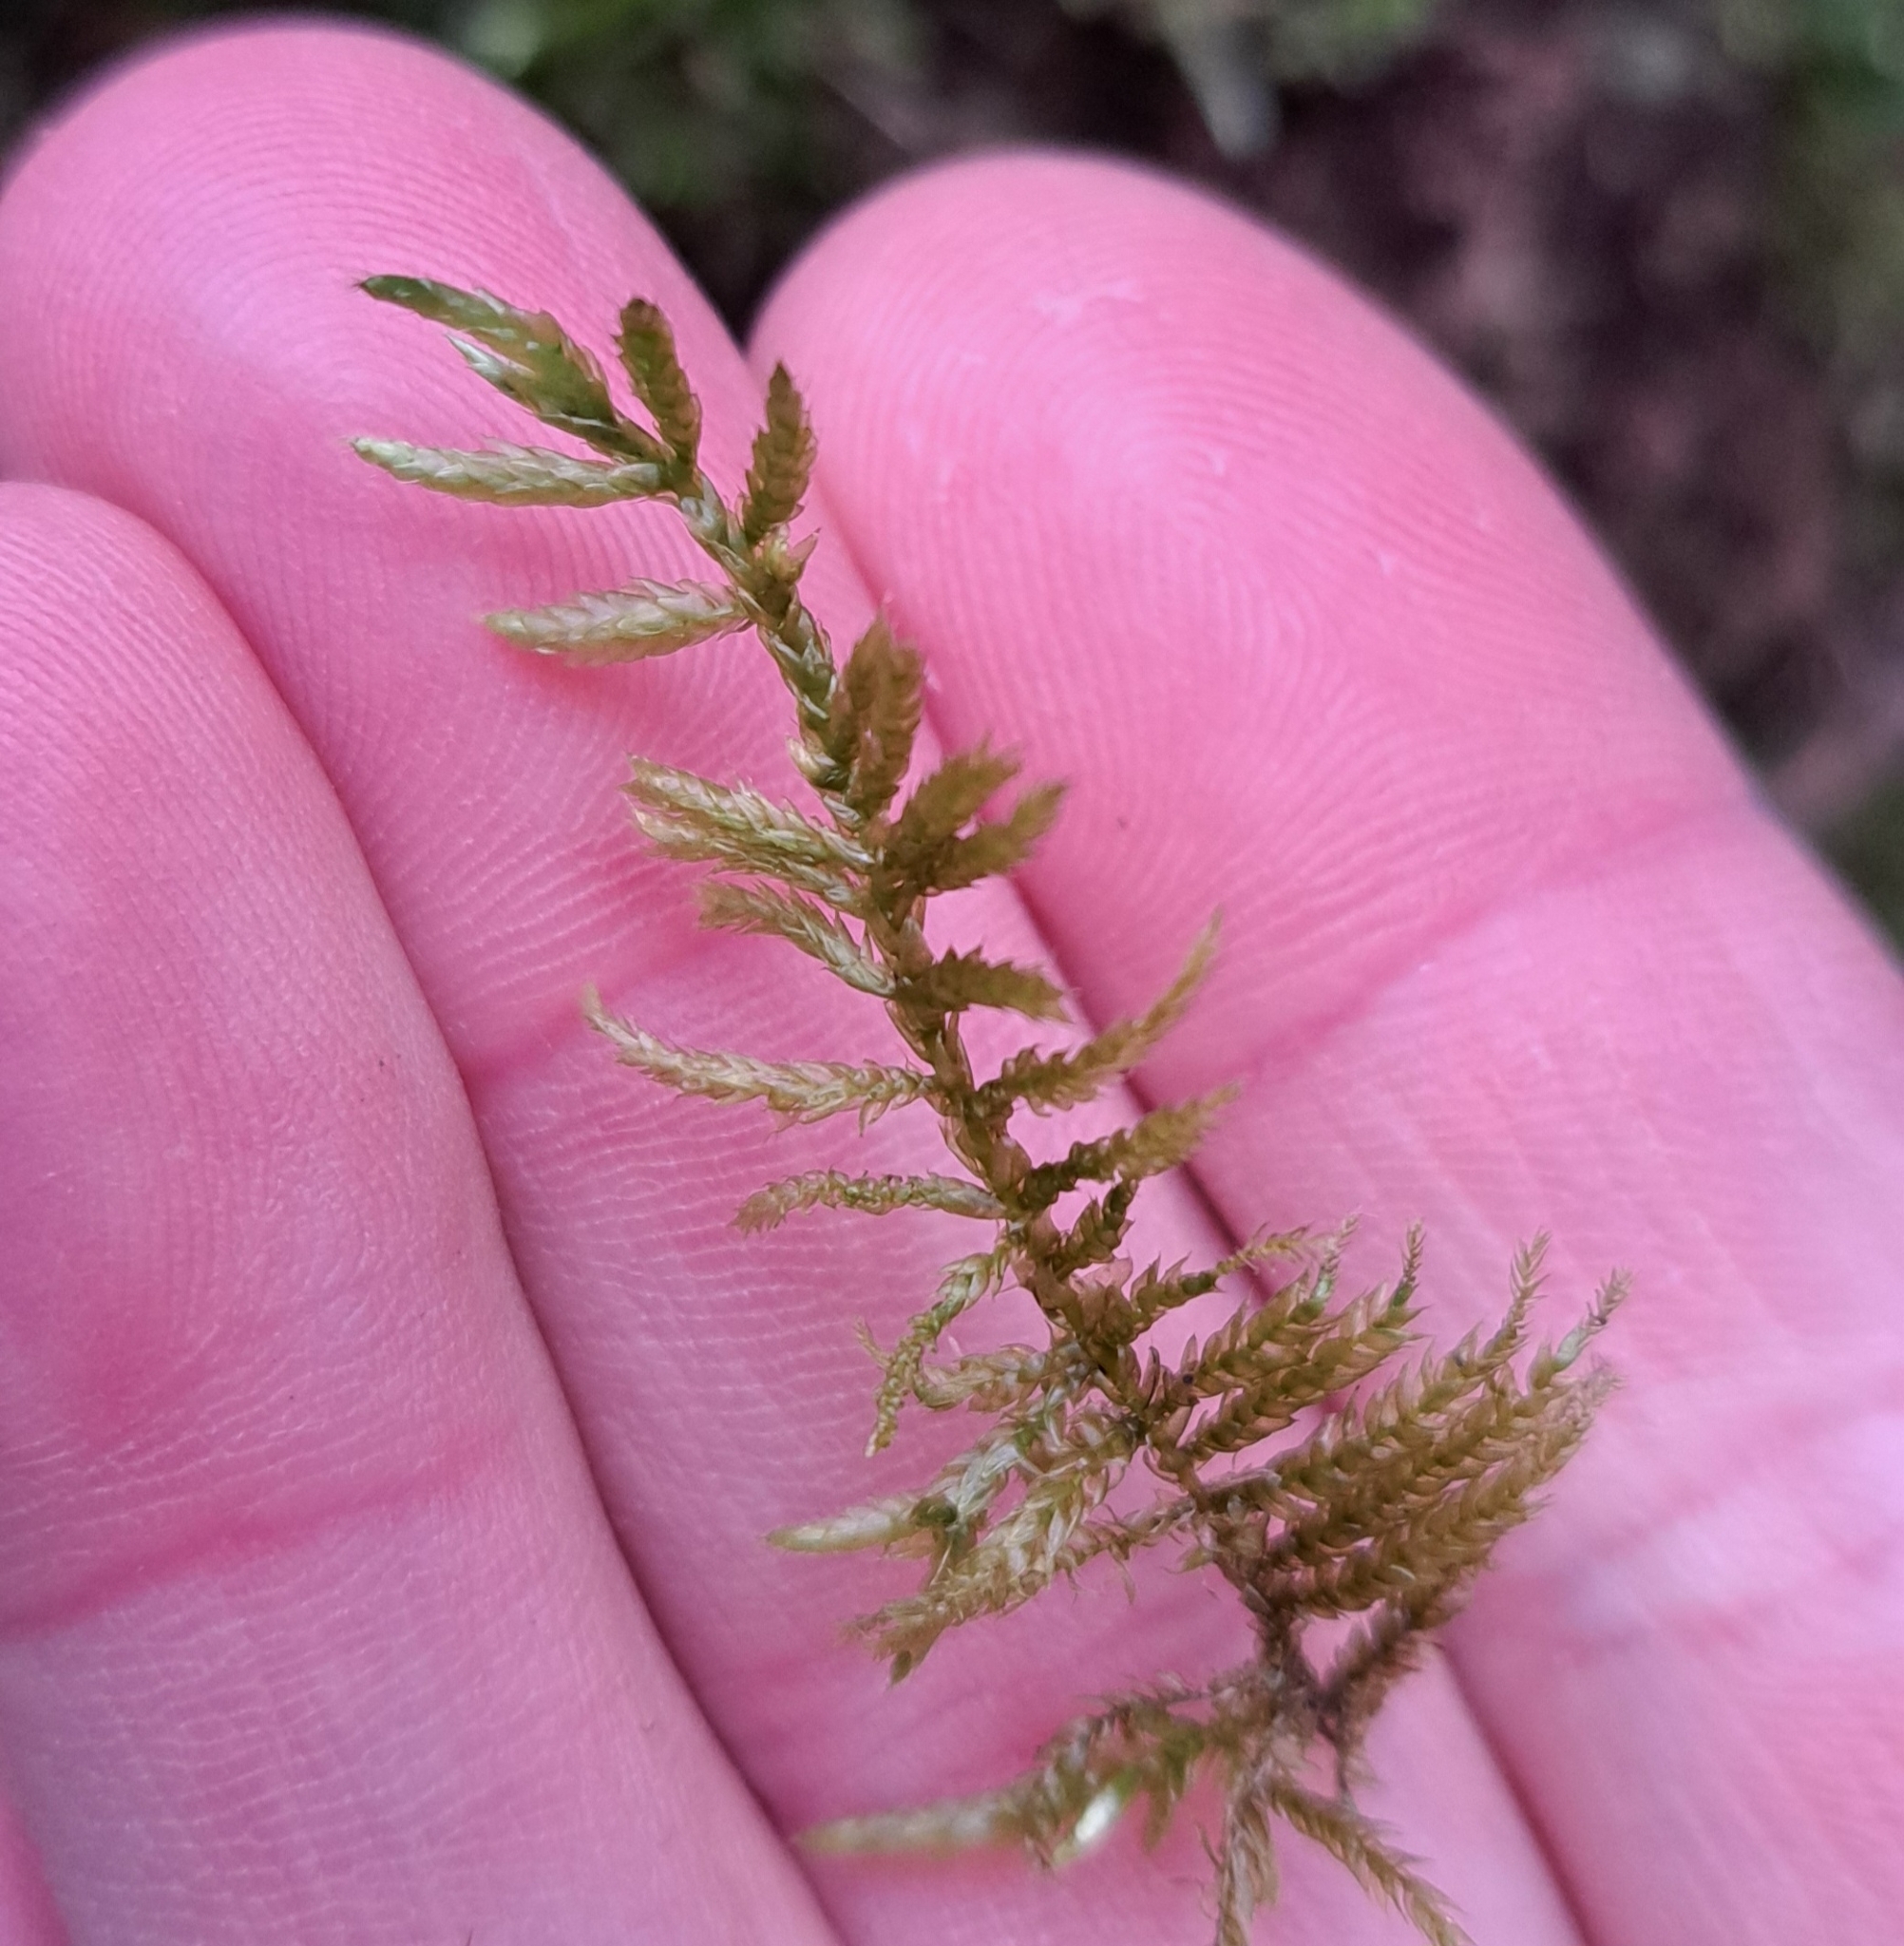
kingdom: Plantae
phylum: Bryophyta
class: Bryopsida
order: Hypnales
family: Brachytheciaceae
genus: Cirriphyllum
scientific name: Cirriphyllum piliferum
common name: Hair-pointed moss
